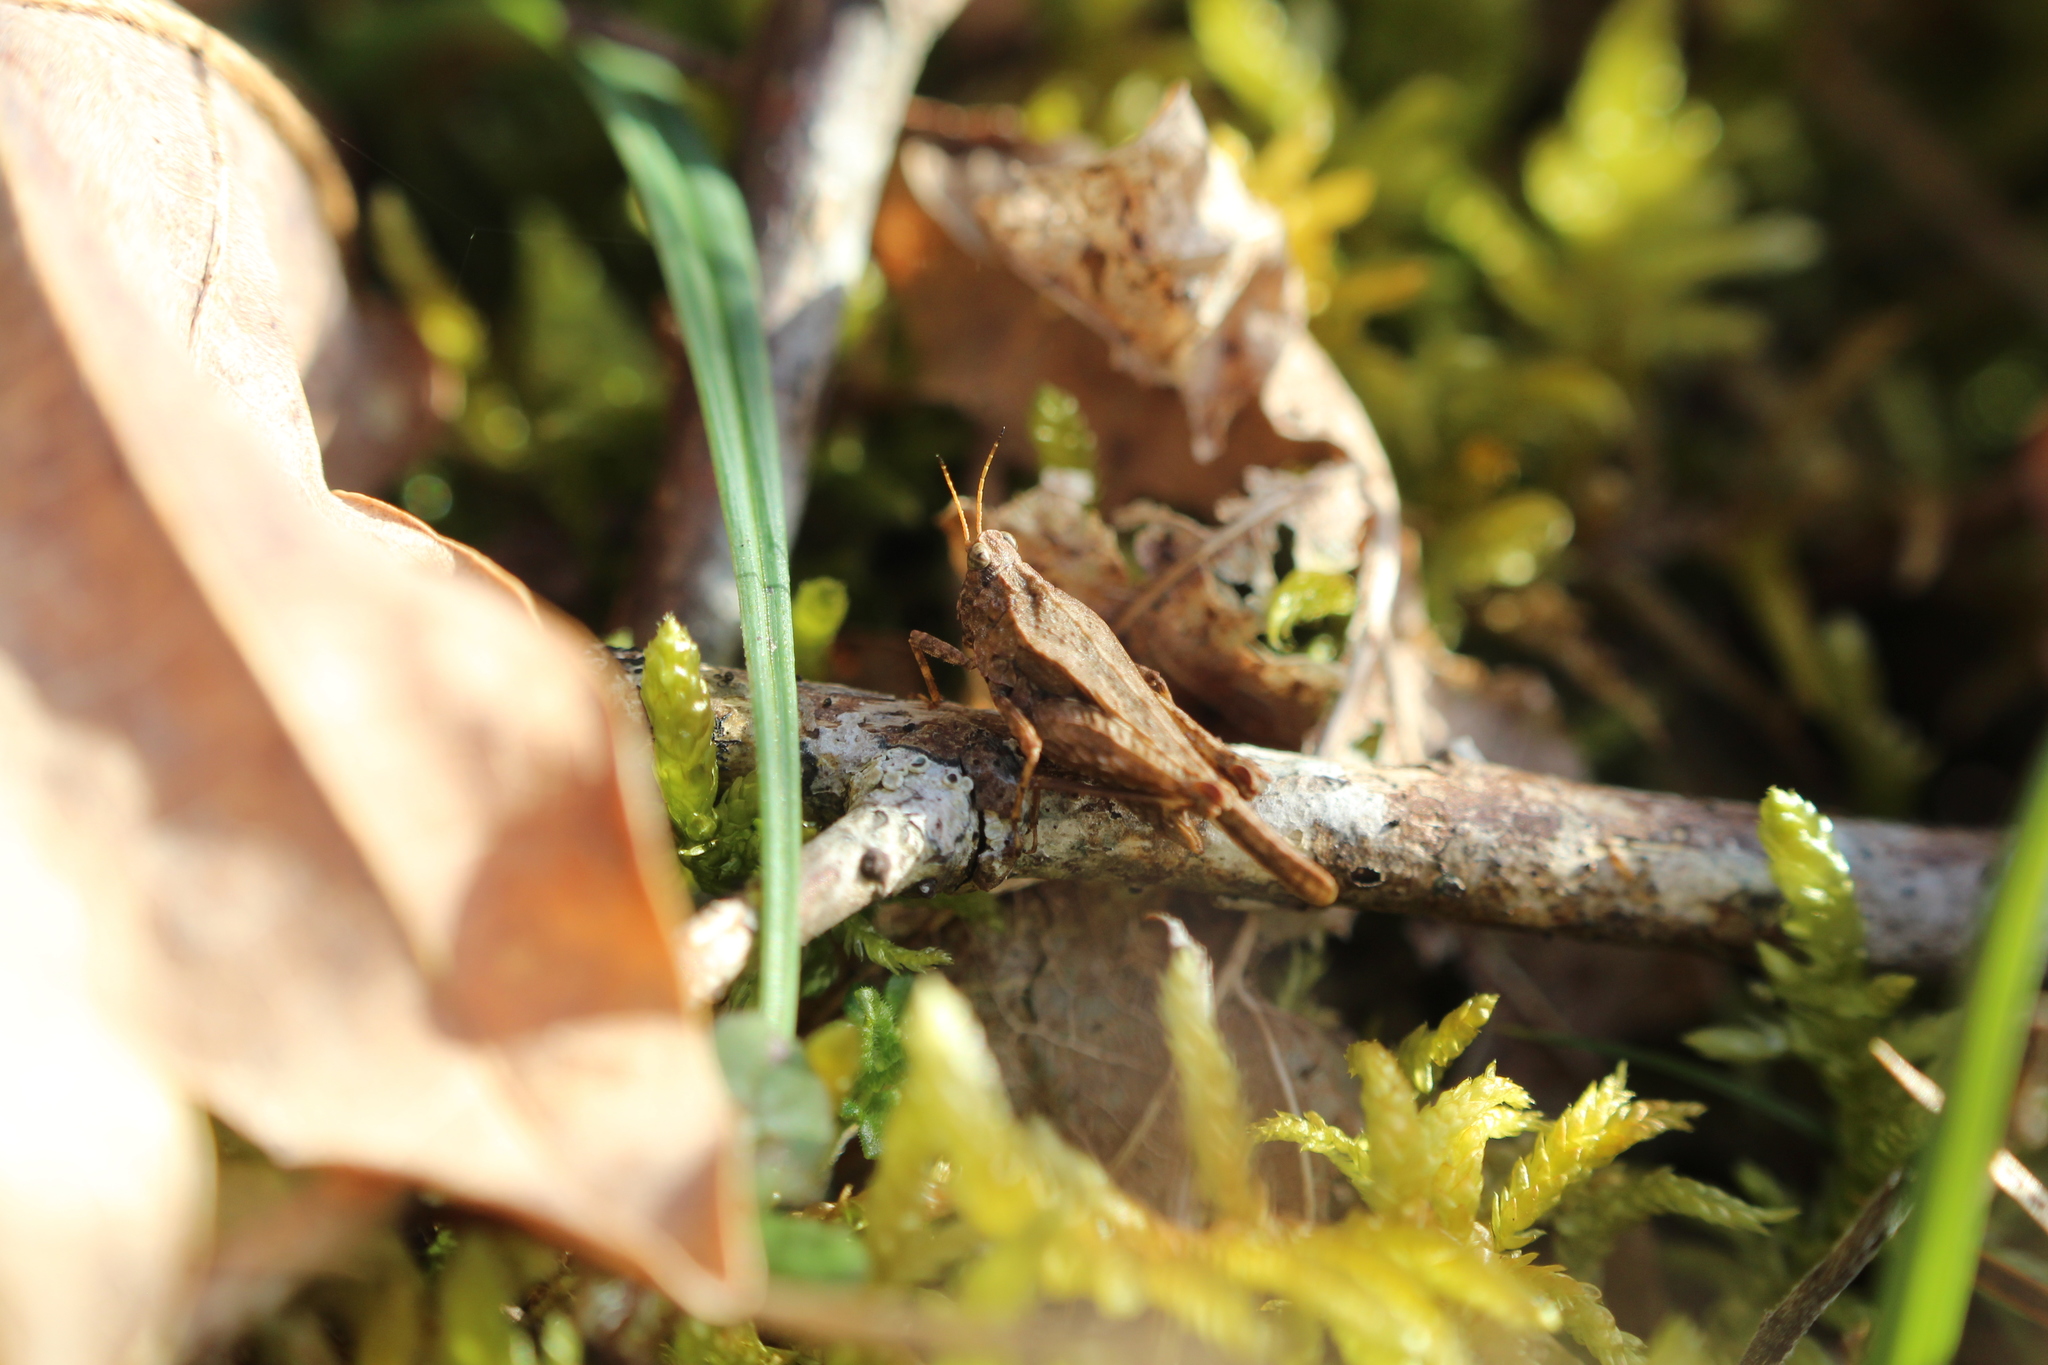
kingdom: Animalia
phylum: Arthropoda
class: Insecta
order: Orthoptera
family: Tetrigidae
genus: Tetrix
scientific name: Tetrix subulata
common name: Slender ground-hopper
